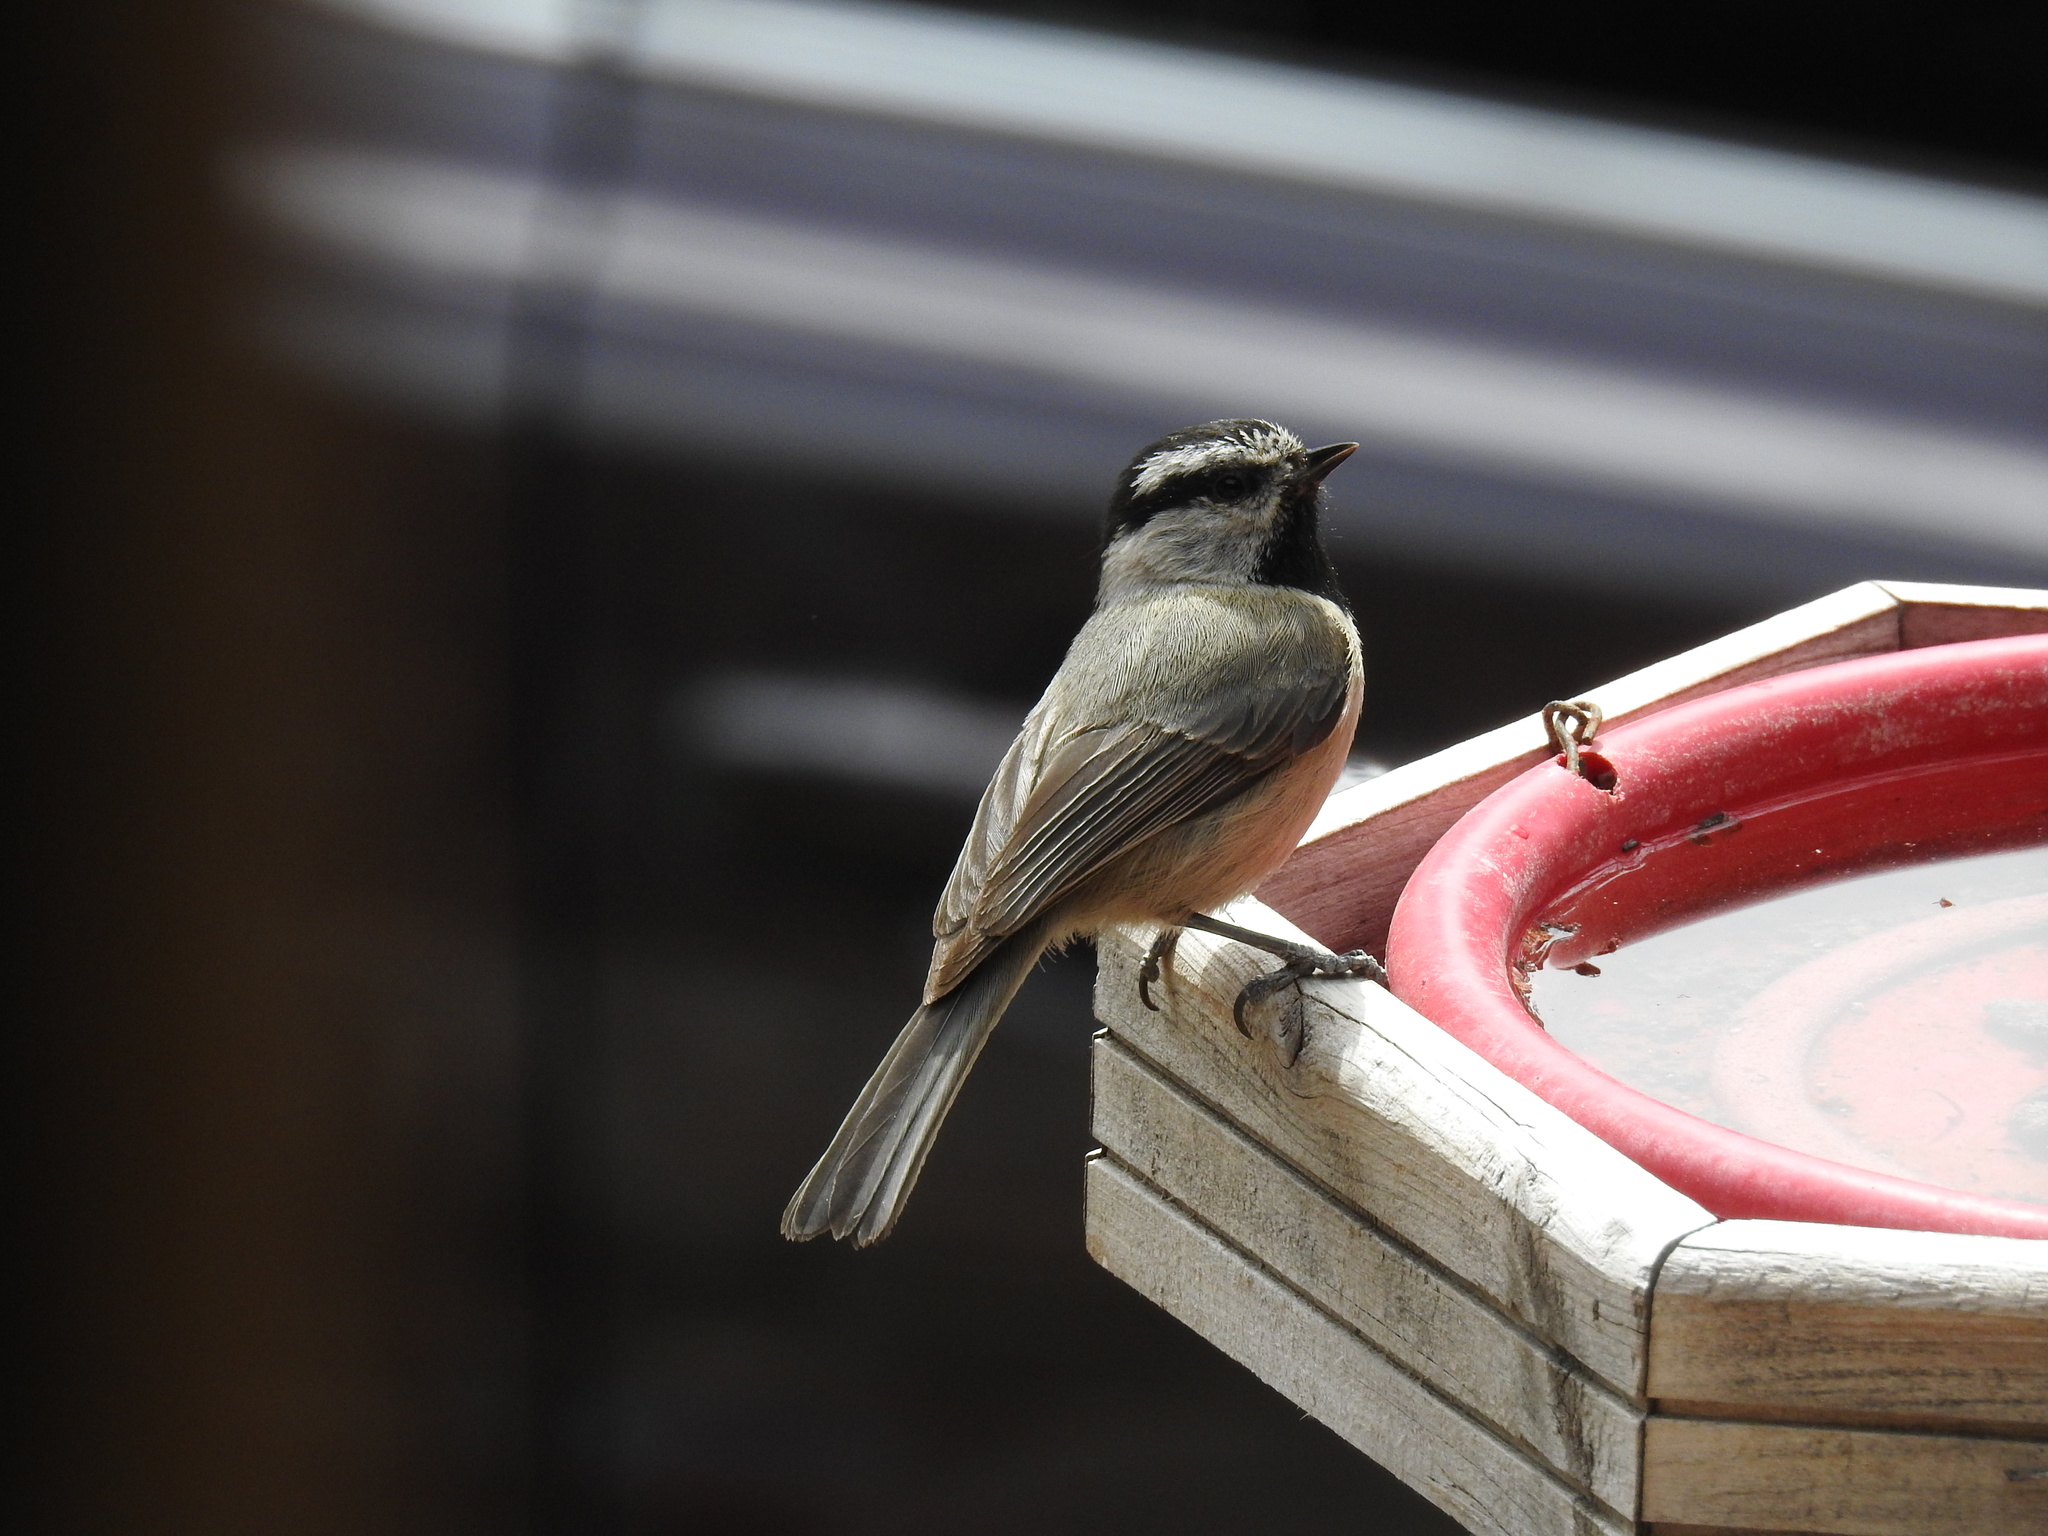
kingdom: Animalia
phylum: Chordata
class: Aves
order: Passeriformes
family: Paridae
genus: Poecile
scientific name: Poecile gambeli
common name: Mountain chickadee
